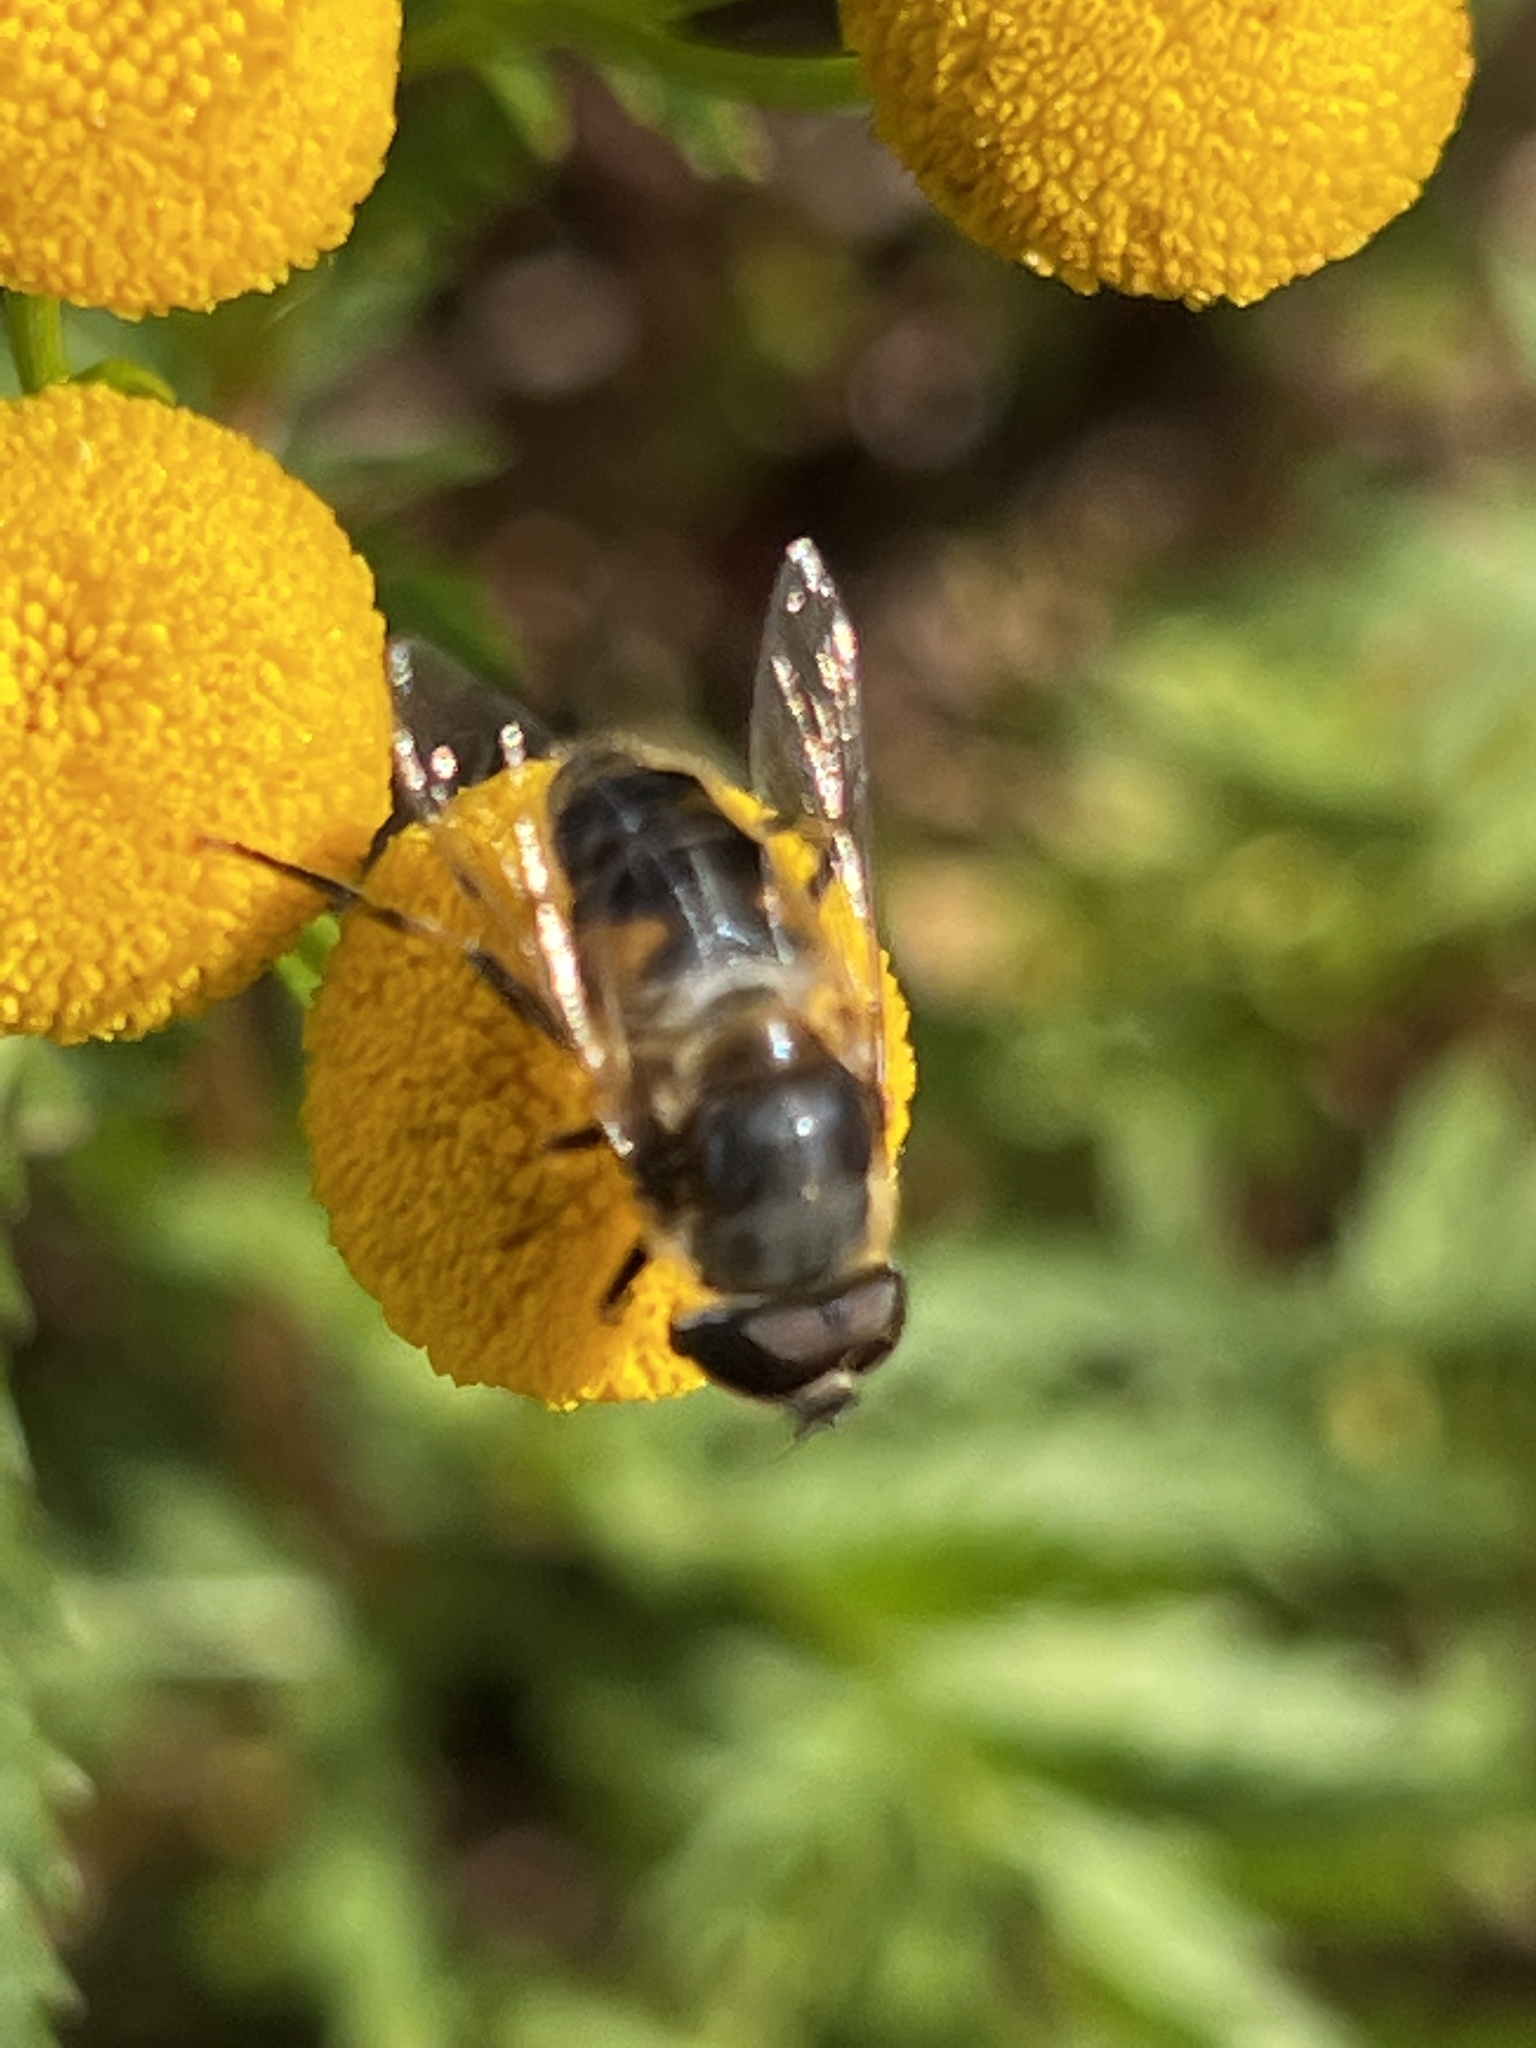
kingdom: Animalia
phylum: Arthropoda
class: Insecta
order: Diptera
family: Syrphidae
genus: Eristalis
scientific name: Eristalis pertinax
